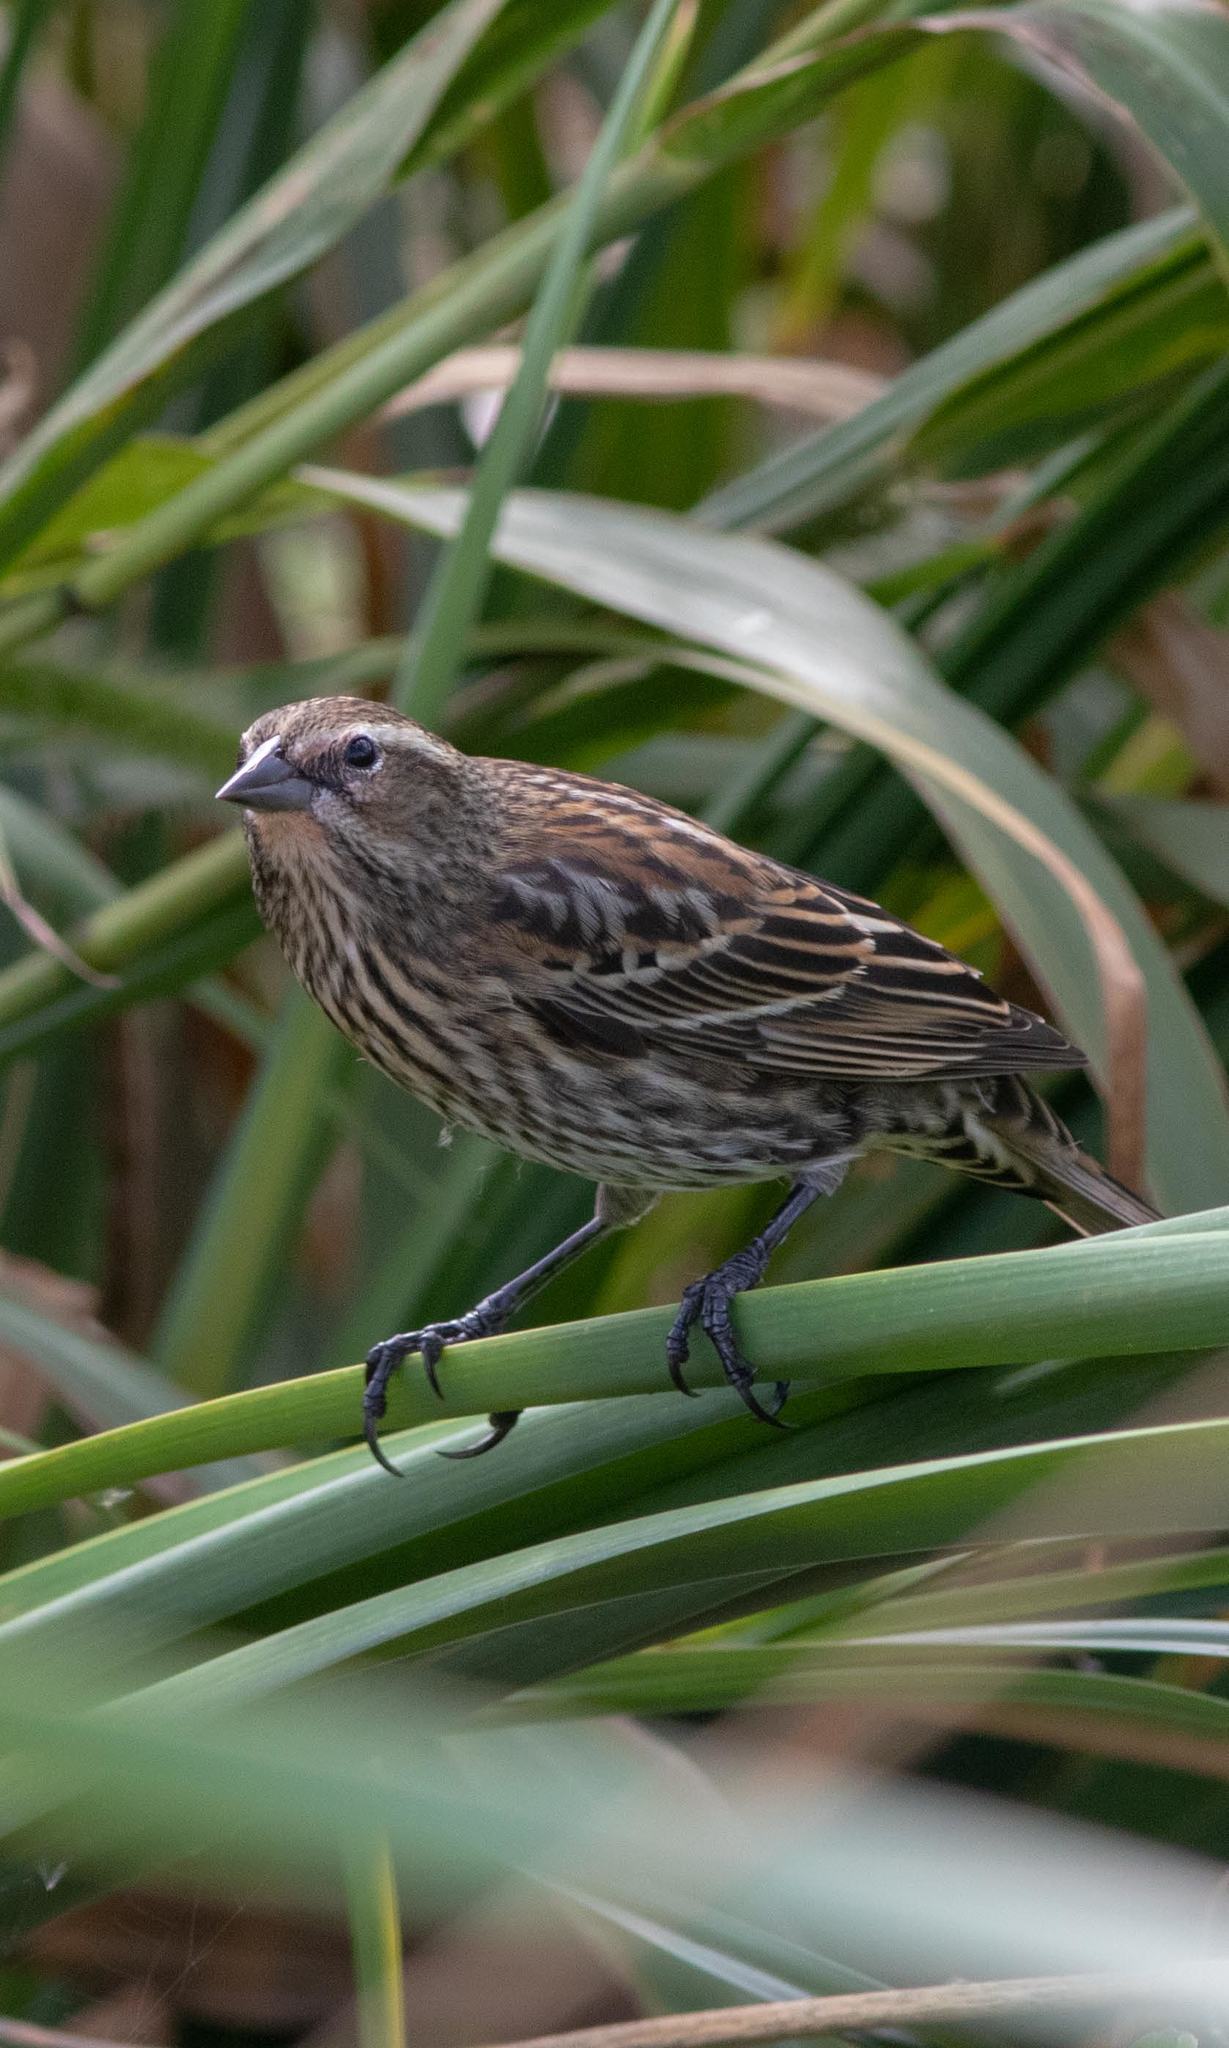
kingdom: Animalia
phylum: Chordata
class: Aves
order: Passeriformes
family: Icteridae
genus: Agelaius
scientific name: Agelaius phoeniceus
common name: Red-winged blackbird
